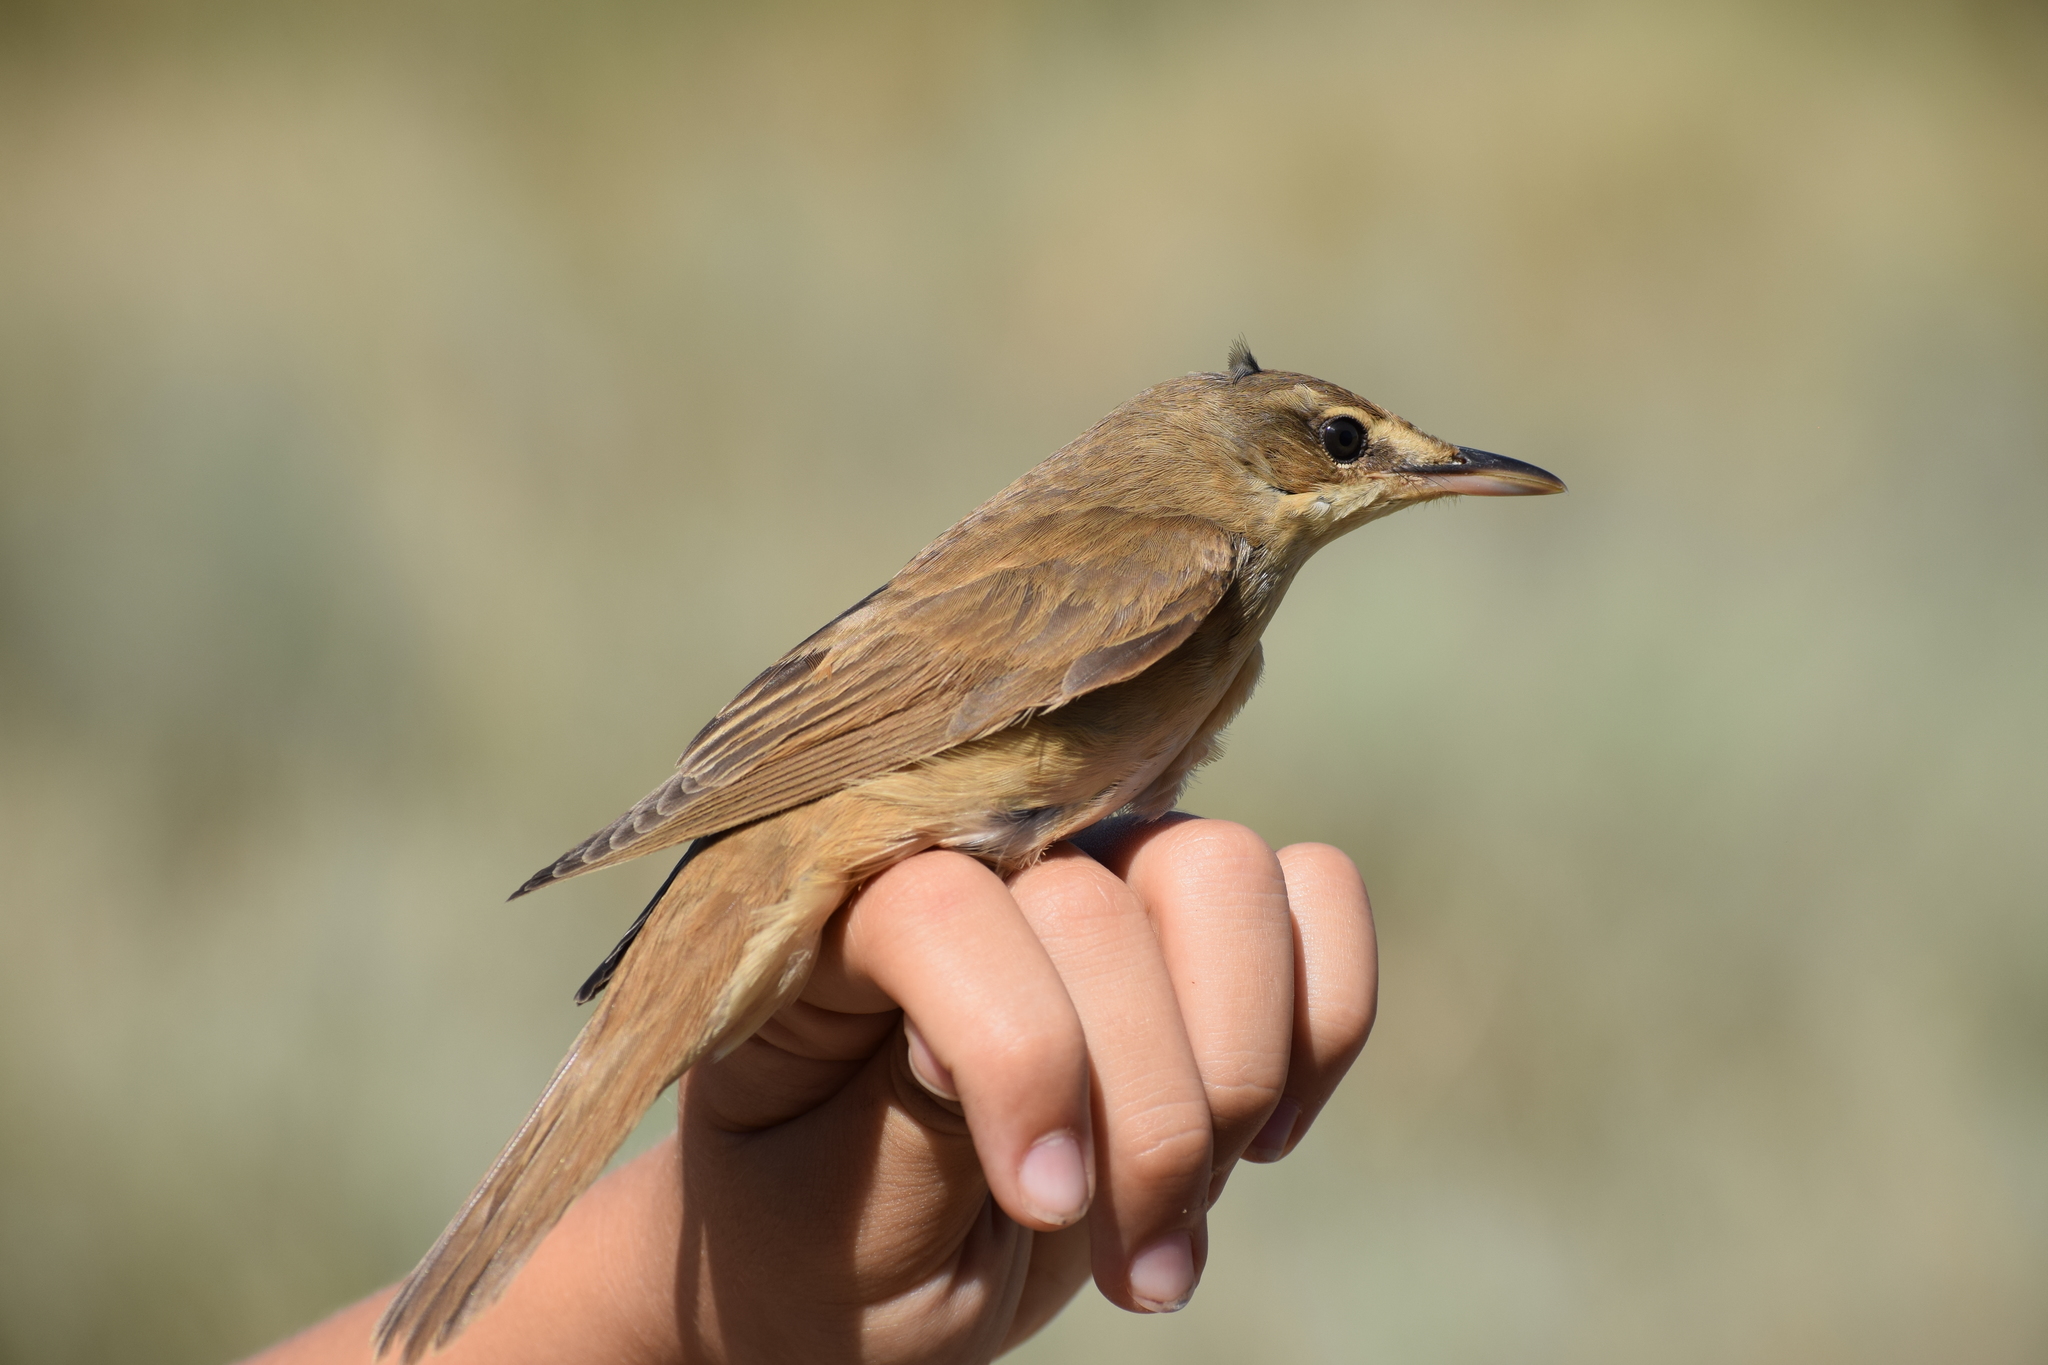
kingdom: Animalia
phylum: Chordata
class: Aves
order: Passeriformes
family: Acrocephalidae
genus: Acrocephalus
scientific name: Acrocephalus arundinaceus
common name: Great reed warbler
